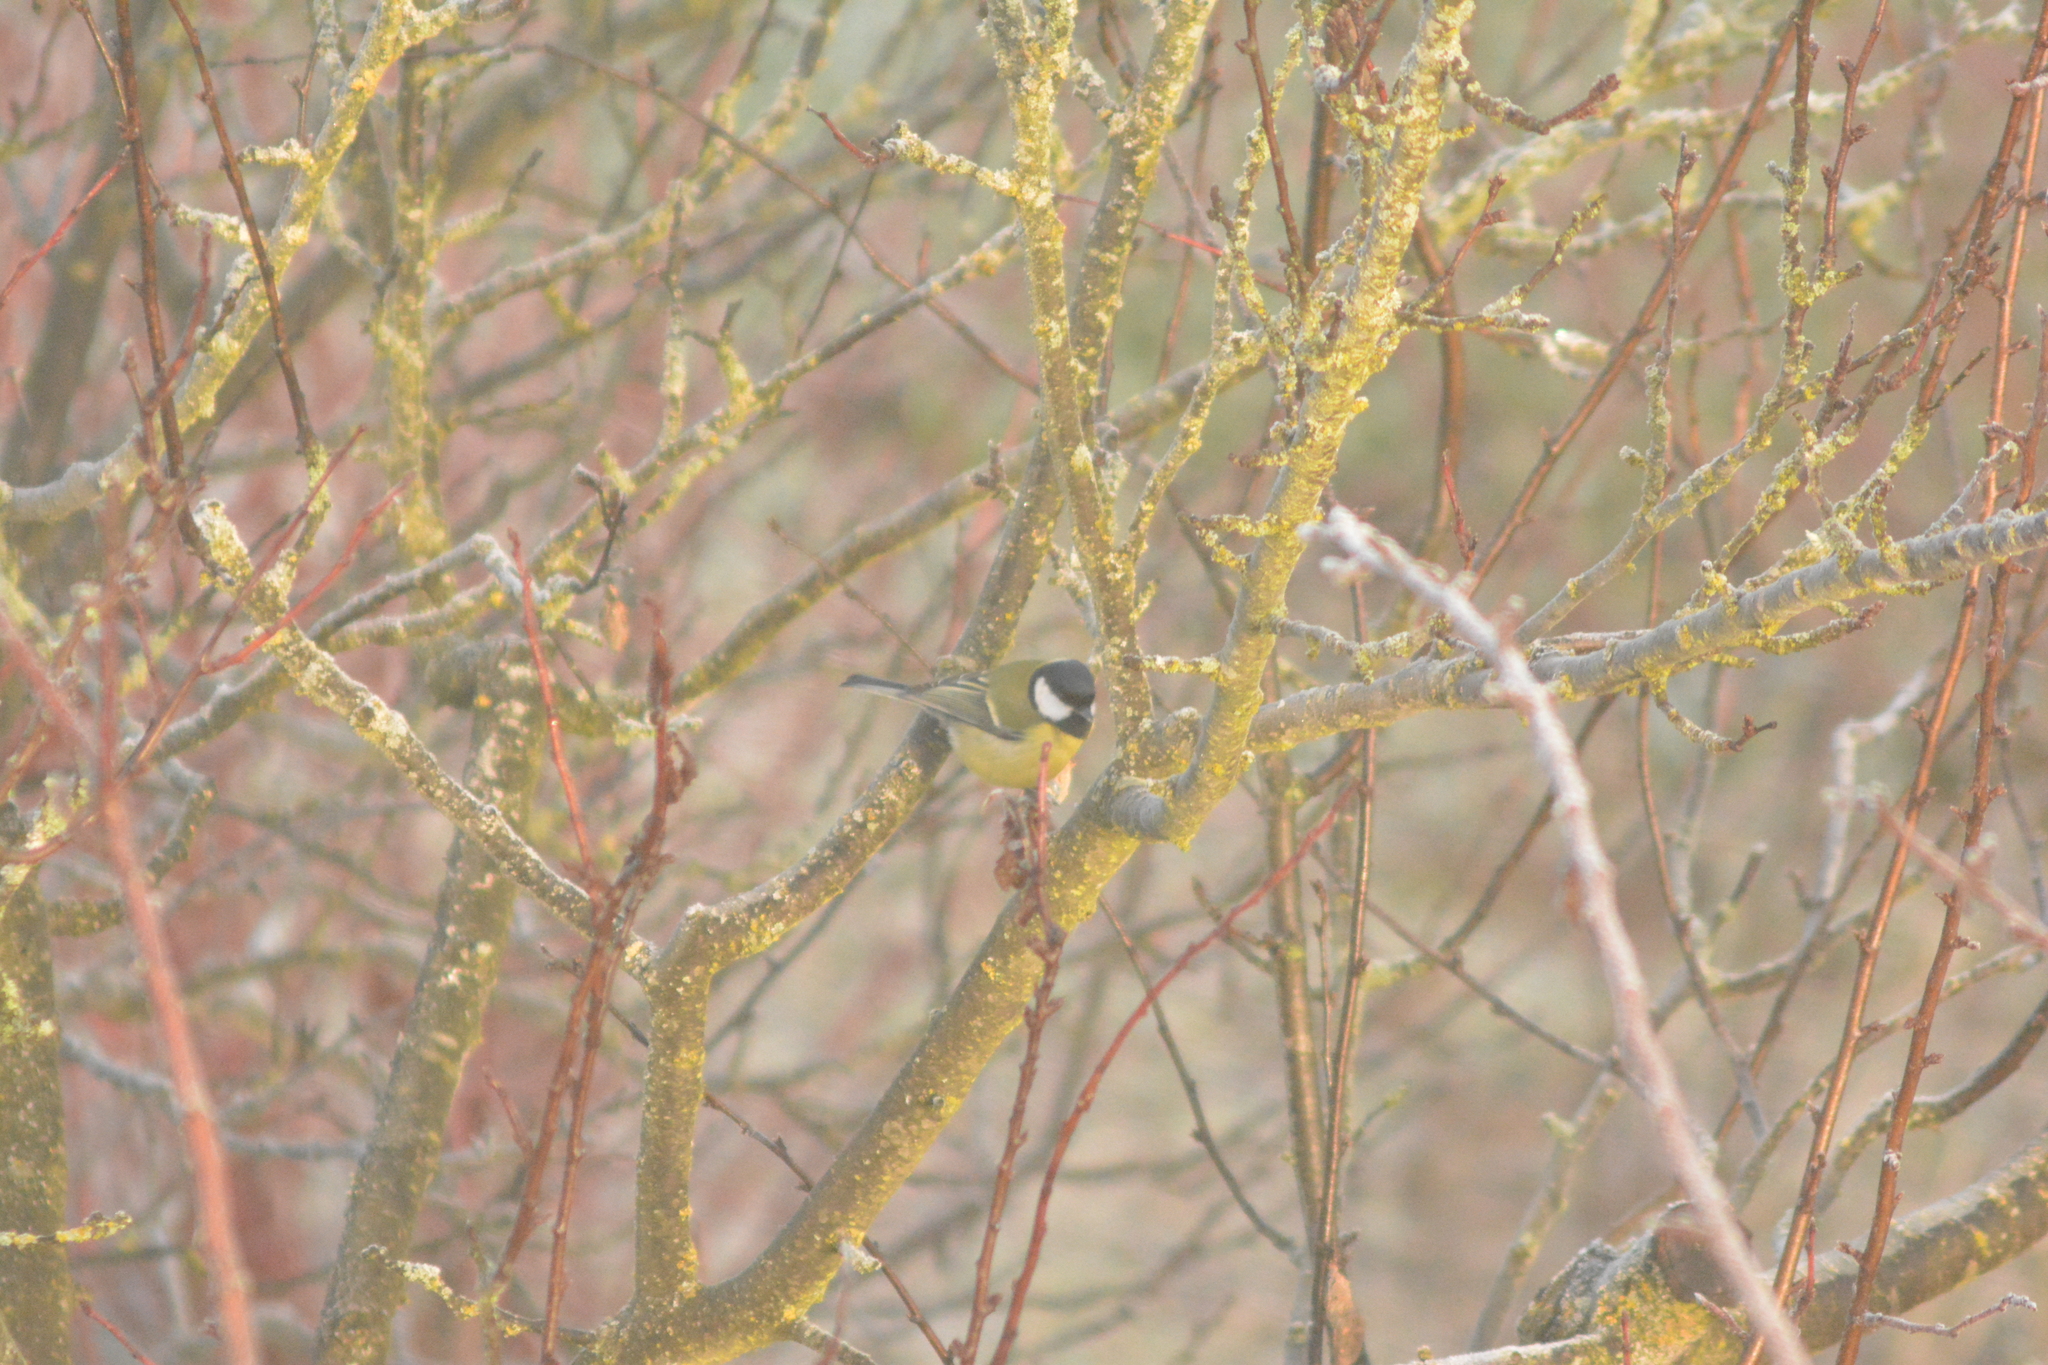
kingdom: Animalia
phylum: Chordata
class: Aves
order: Passeriformes
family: Paridae
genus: Parus
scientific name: Parus major
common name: Great tit
